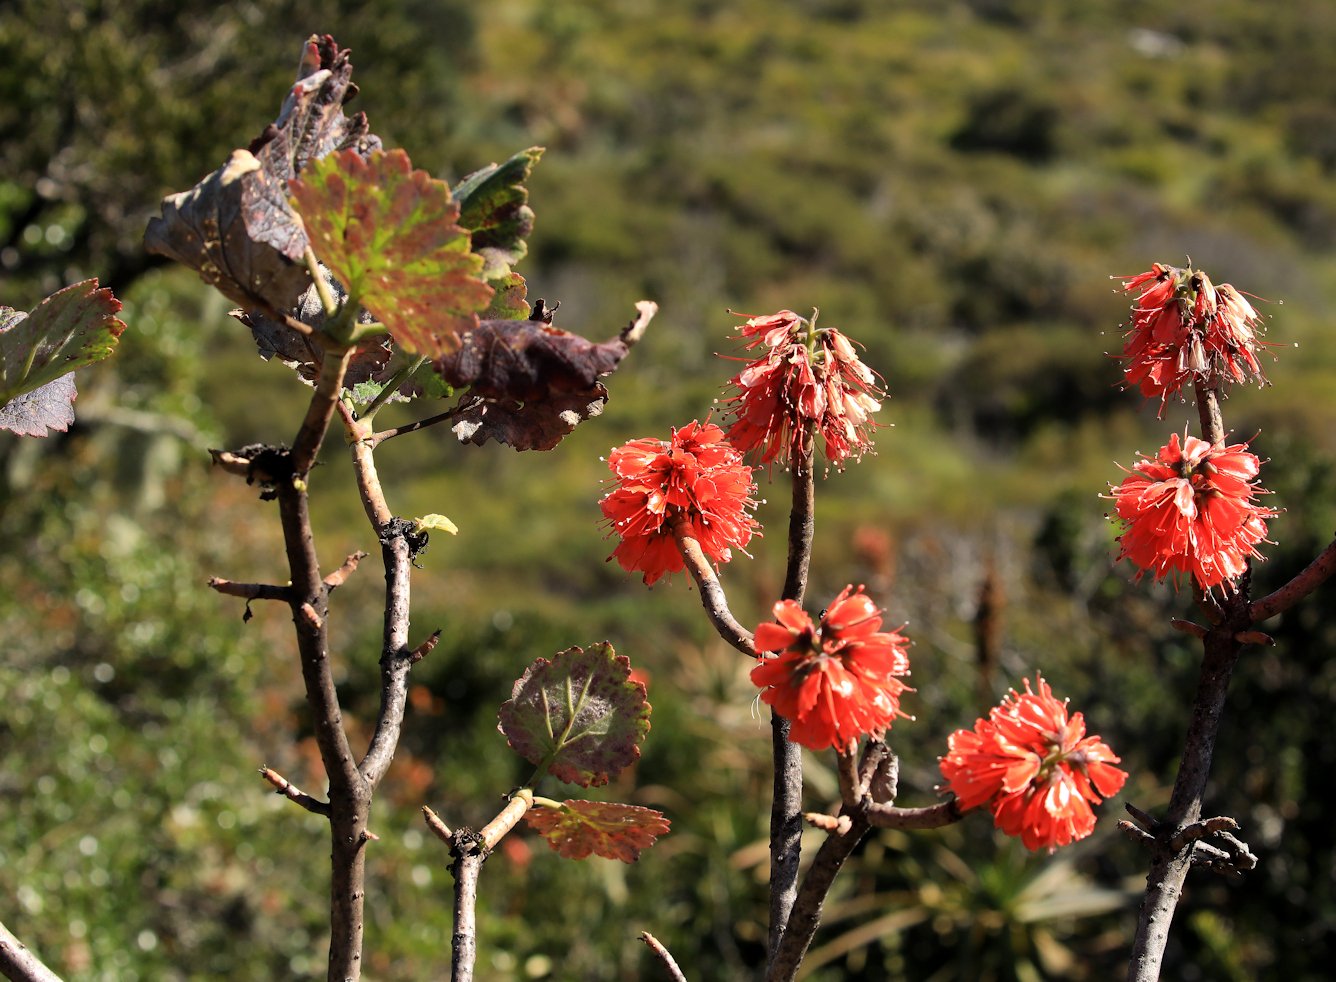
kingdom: Plantae
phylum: Tracheophyta
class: Magnoliopsida
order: Geraniales
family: Francoaceae
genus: Greyia
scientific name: Greyia radlkoferi
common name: Natal bottlebrush
